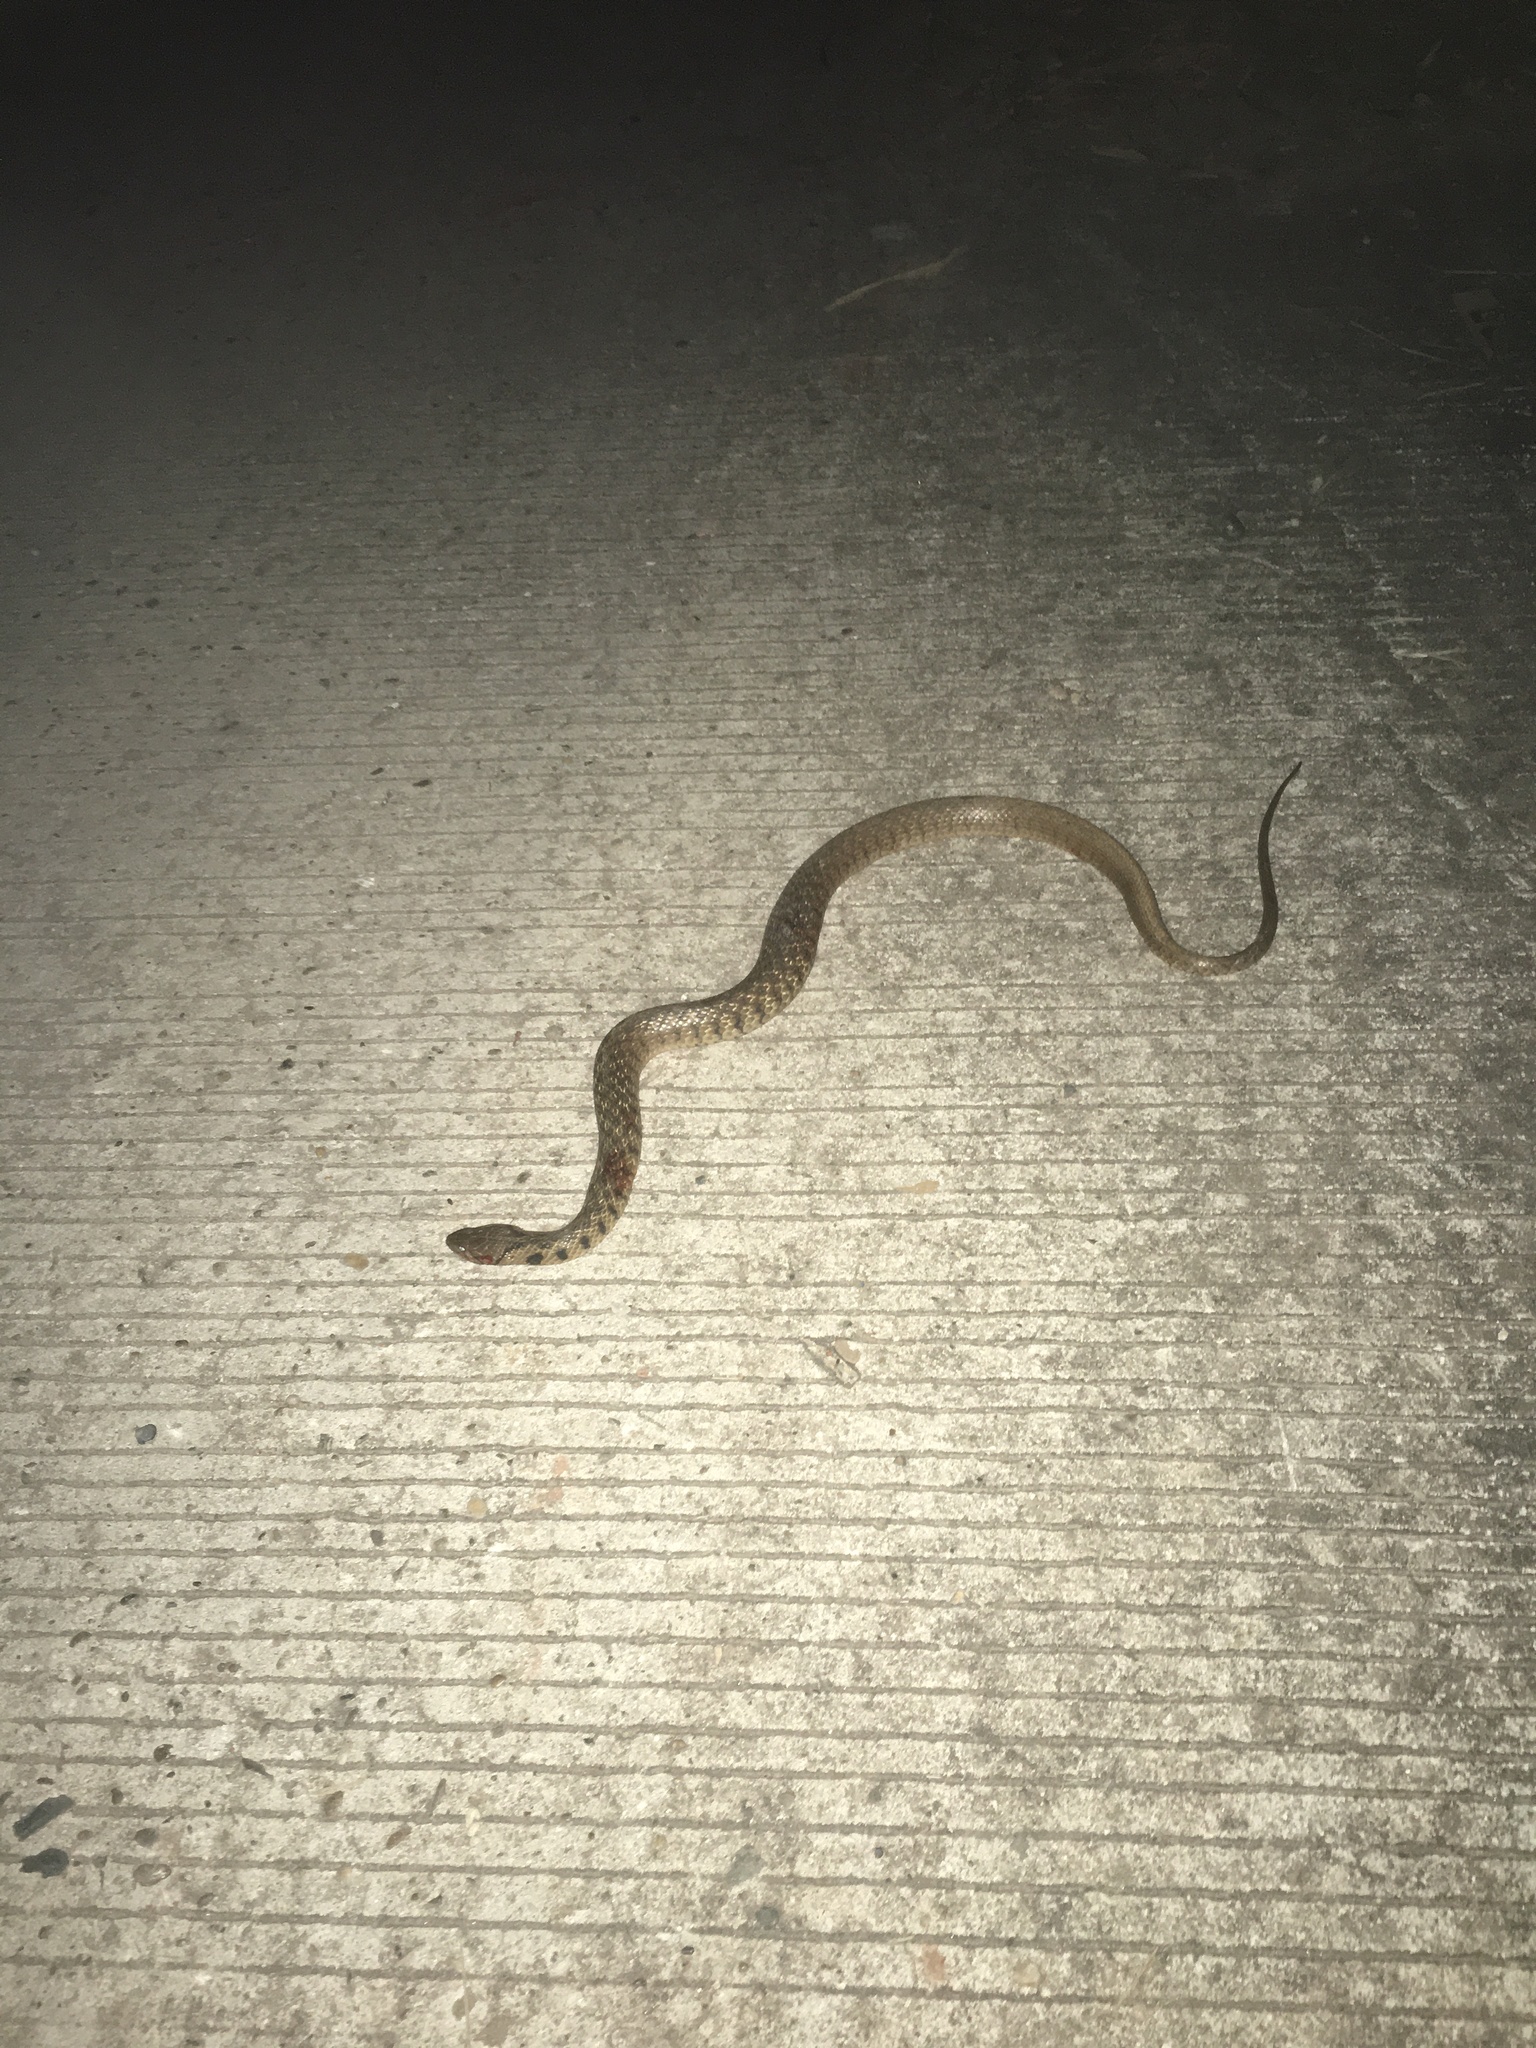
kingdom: Animalia
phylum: Chordata
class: Squamata
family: Colubridae
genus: Fowlea
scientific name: Fowlea flavipunctatus
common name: Yellow-spotted keelback
